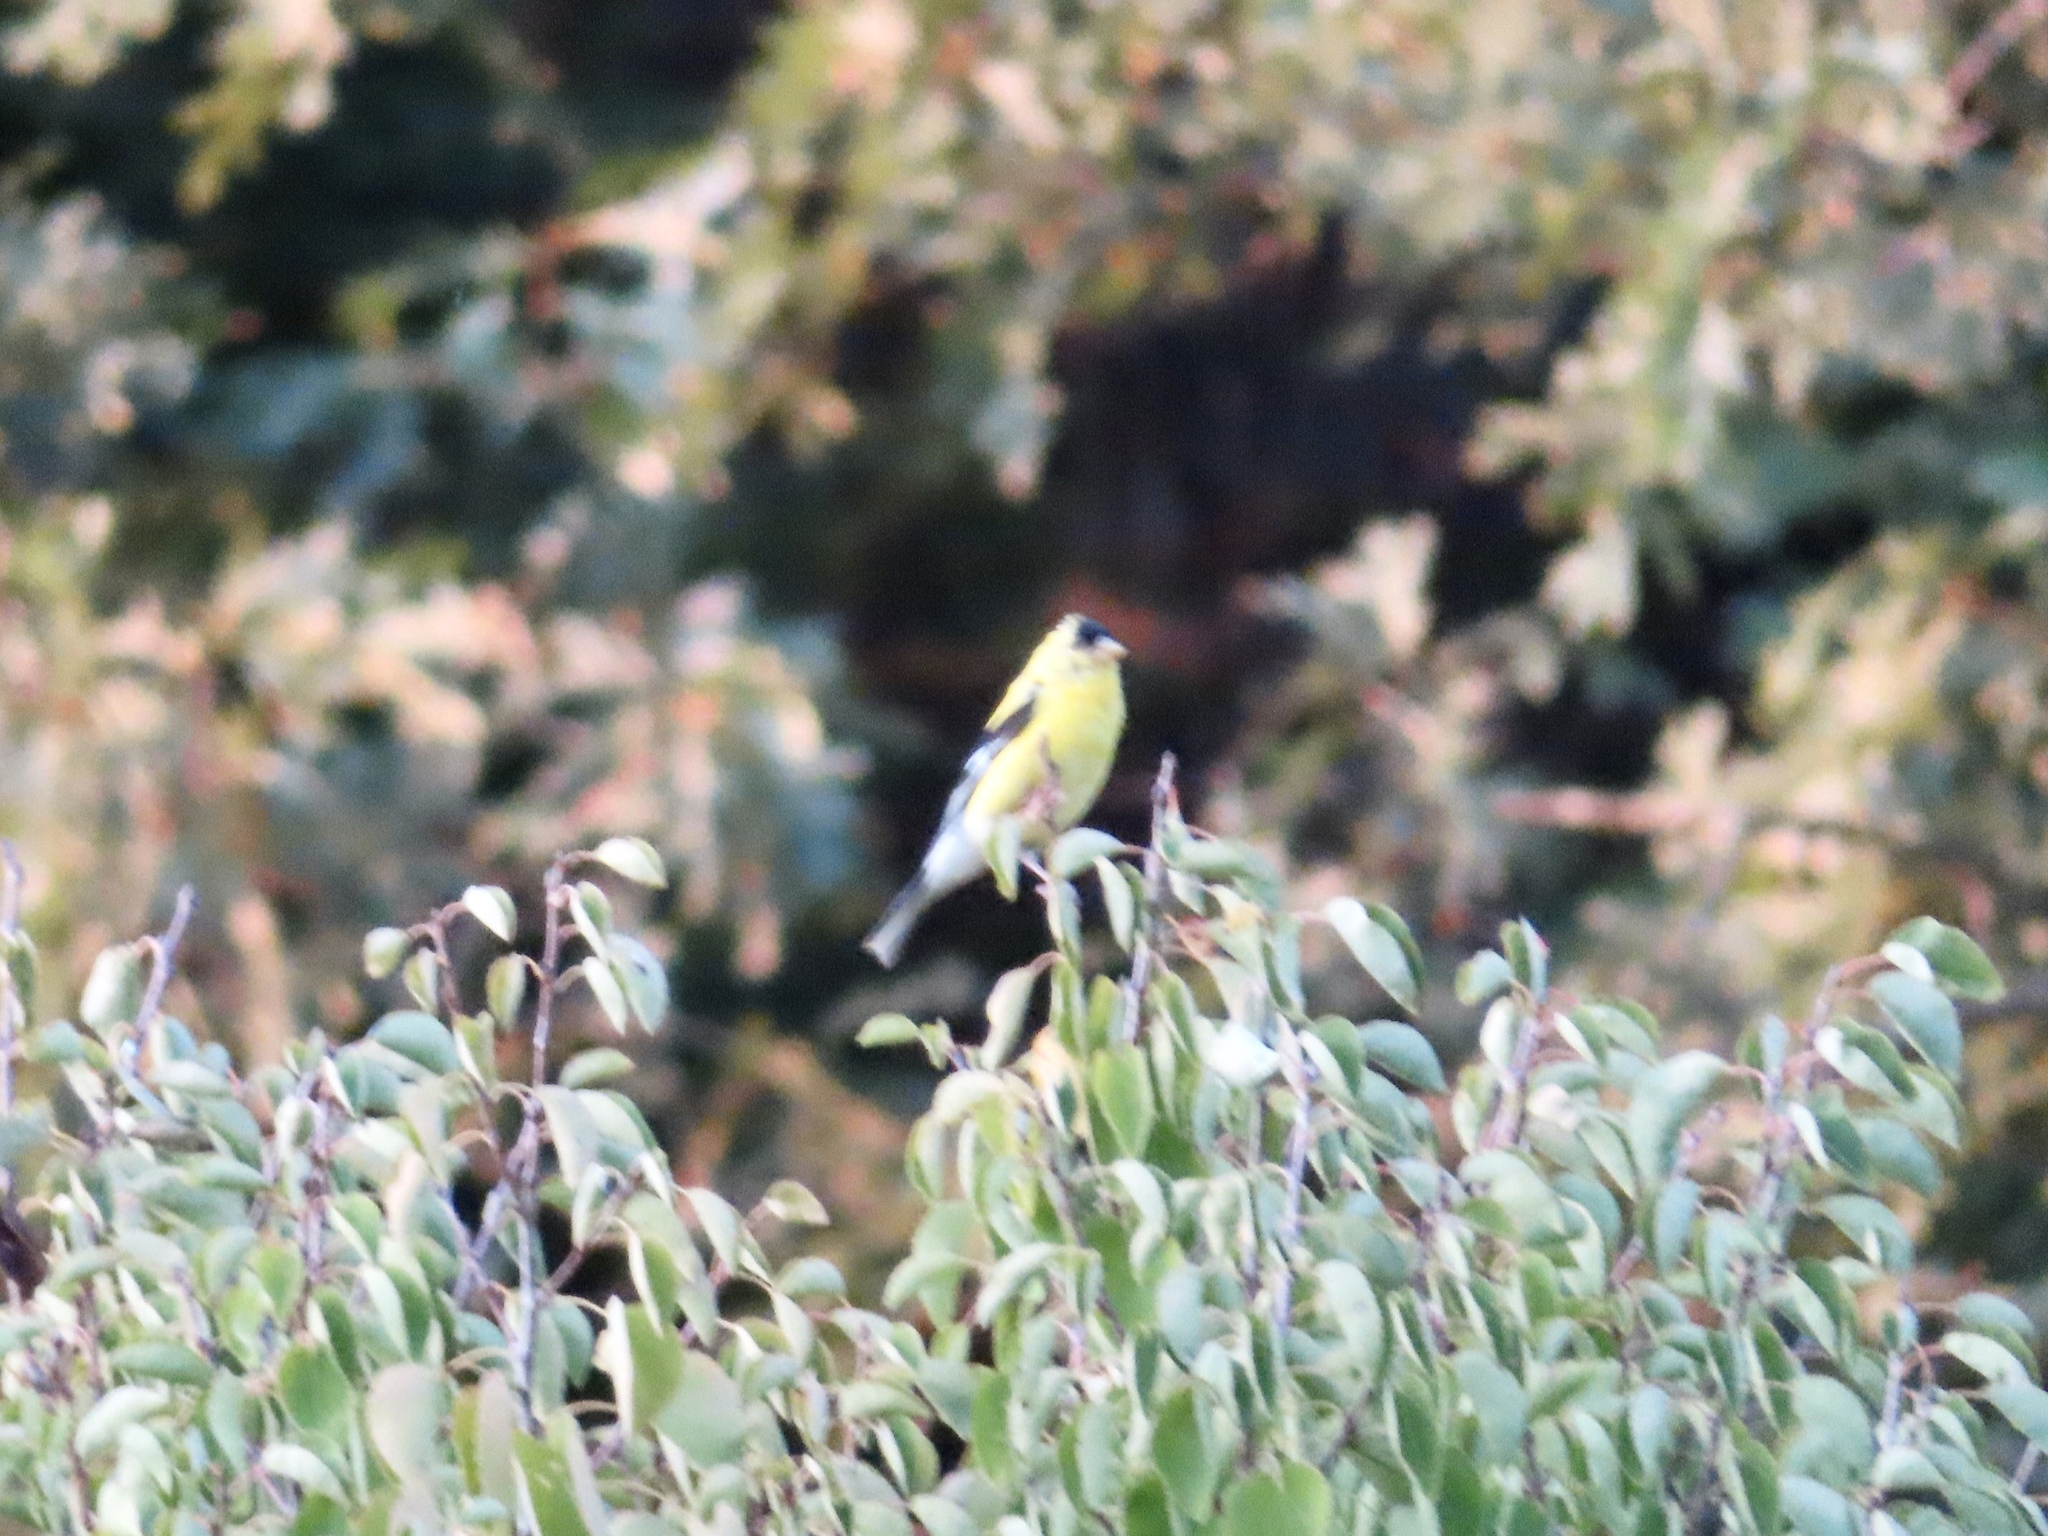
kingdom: Animalia
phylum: Chordata
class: Aves
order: Passeriformes
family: Fringillidae
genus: Spinus
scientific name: Spinus tristis
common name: American goldfinch
